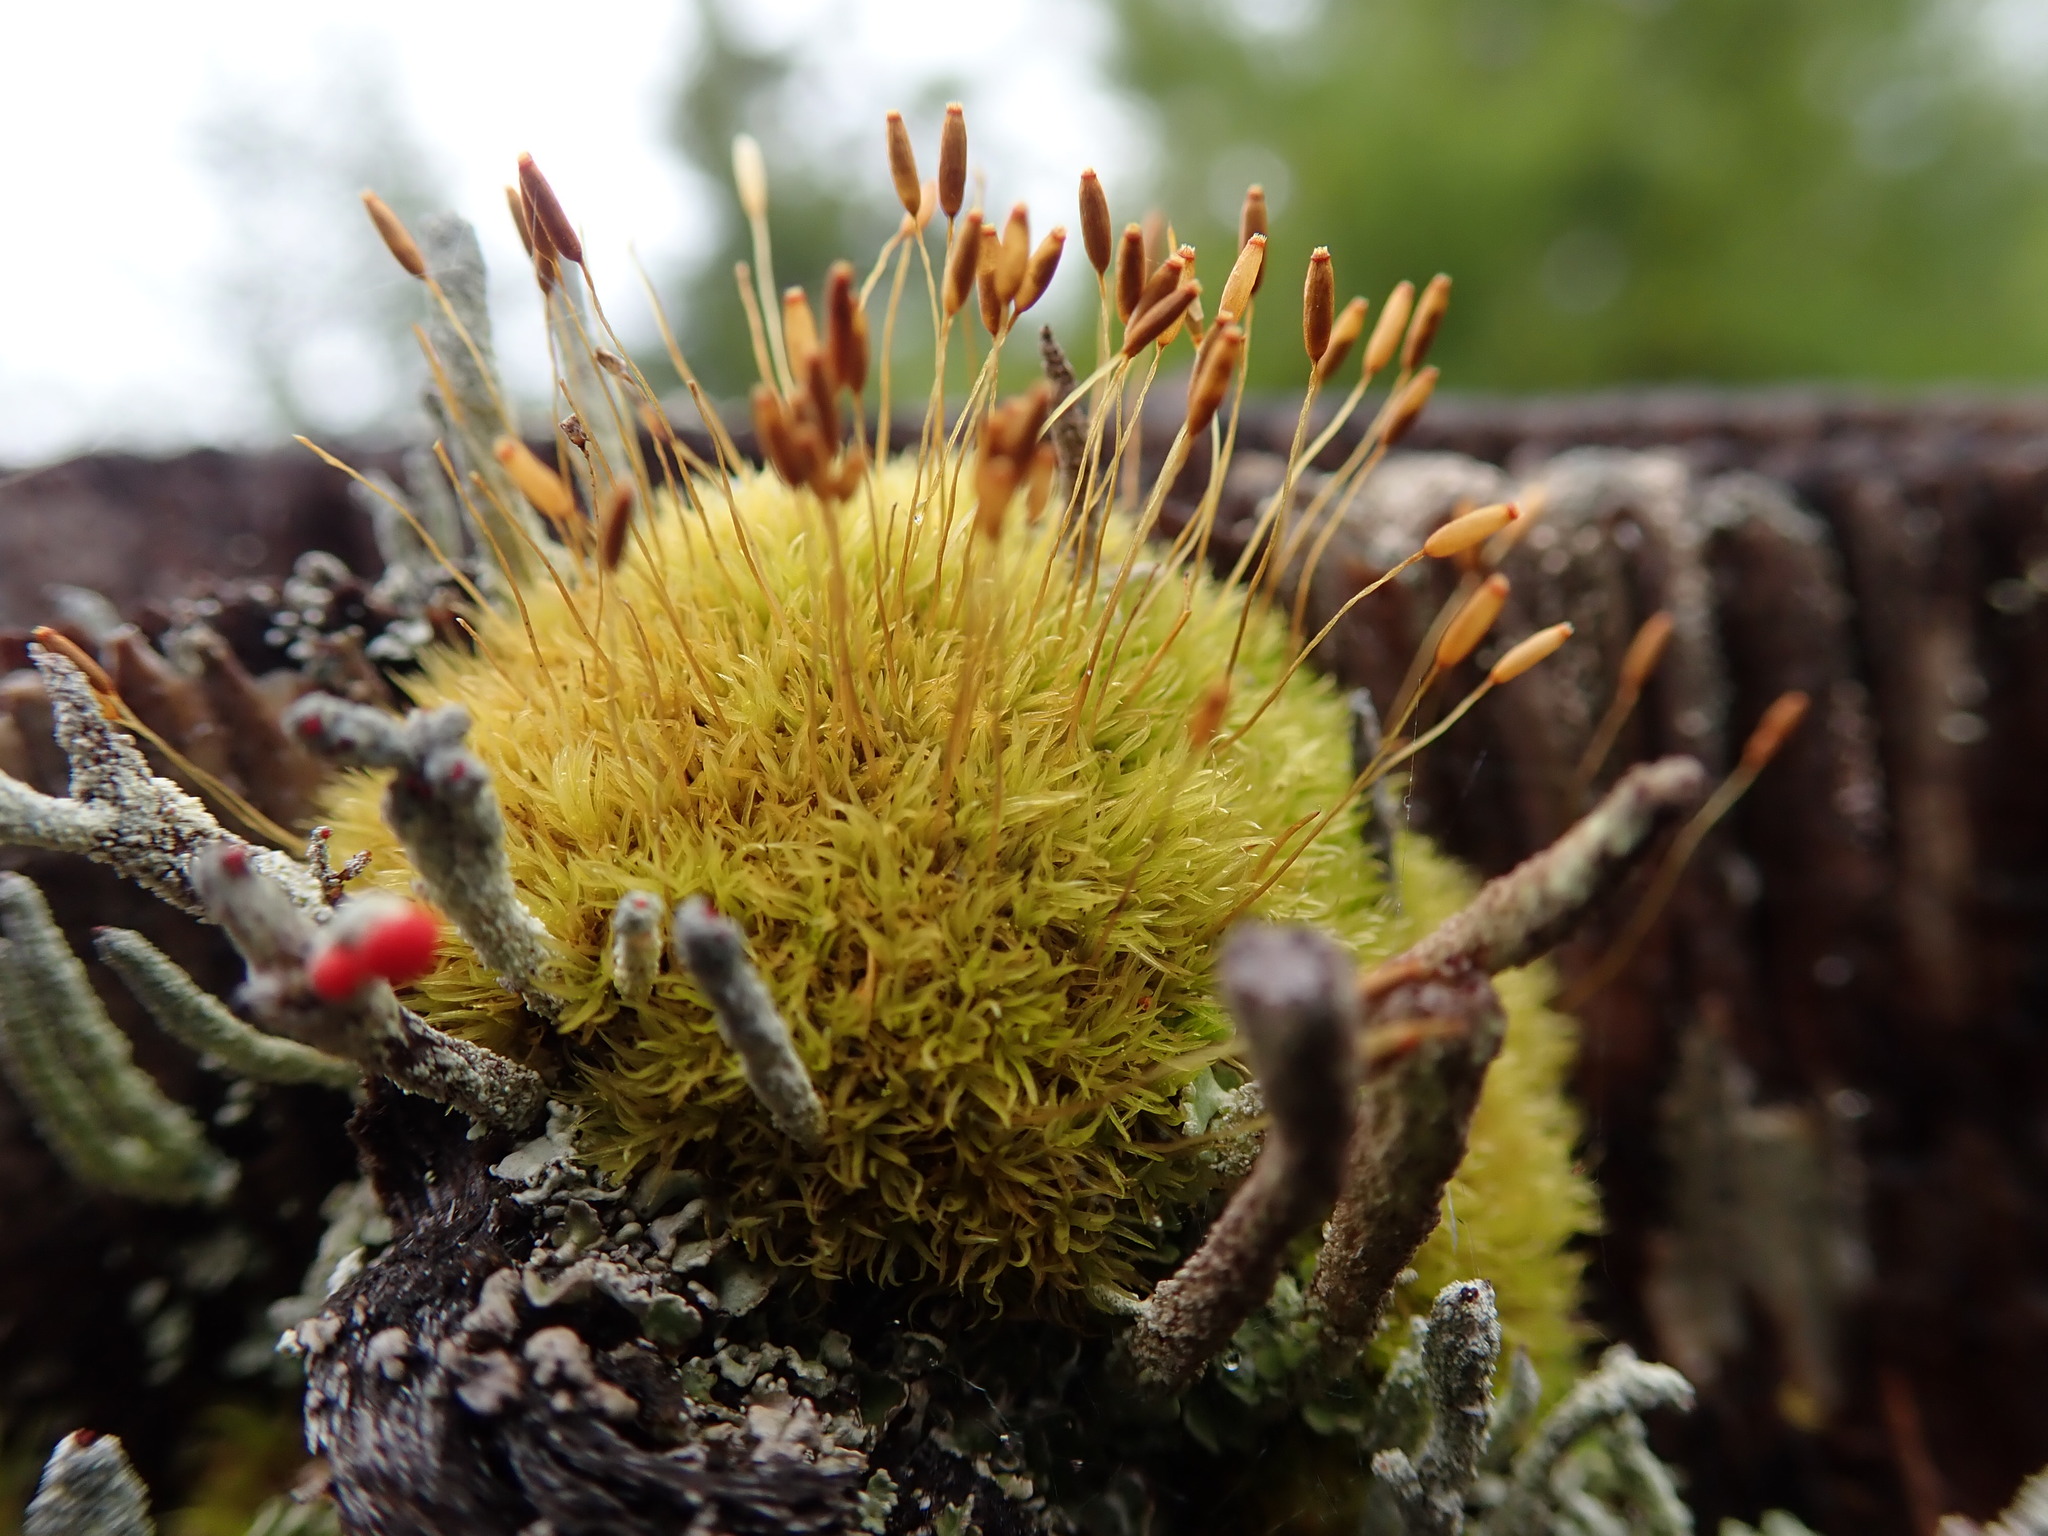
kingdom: Plantae
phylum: Bryophyta
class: Bryopsida
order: Dicranales
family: Rhabdoweisiaceae
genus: Dicranoweisia
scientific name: Dicranoweisia cirrata
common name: Common pincushion
